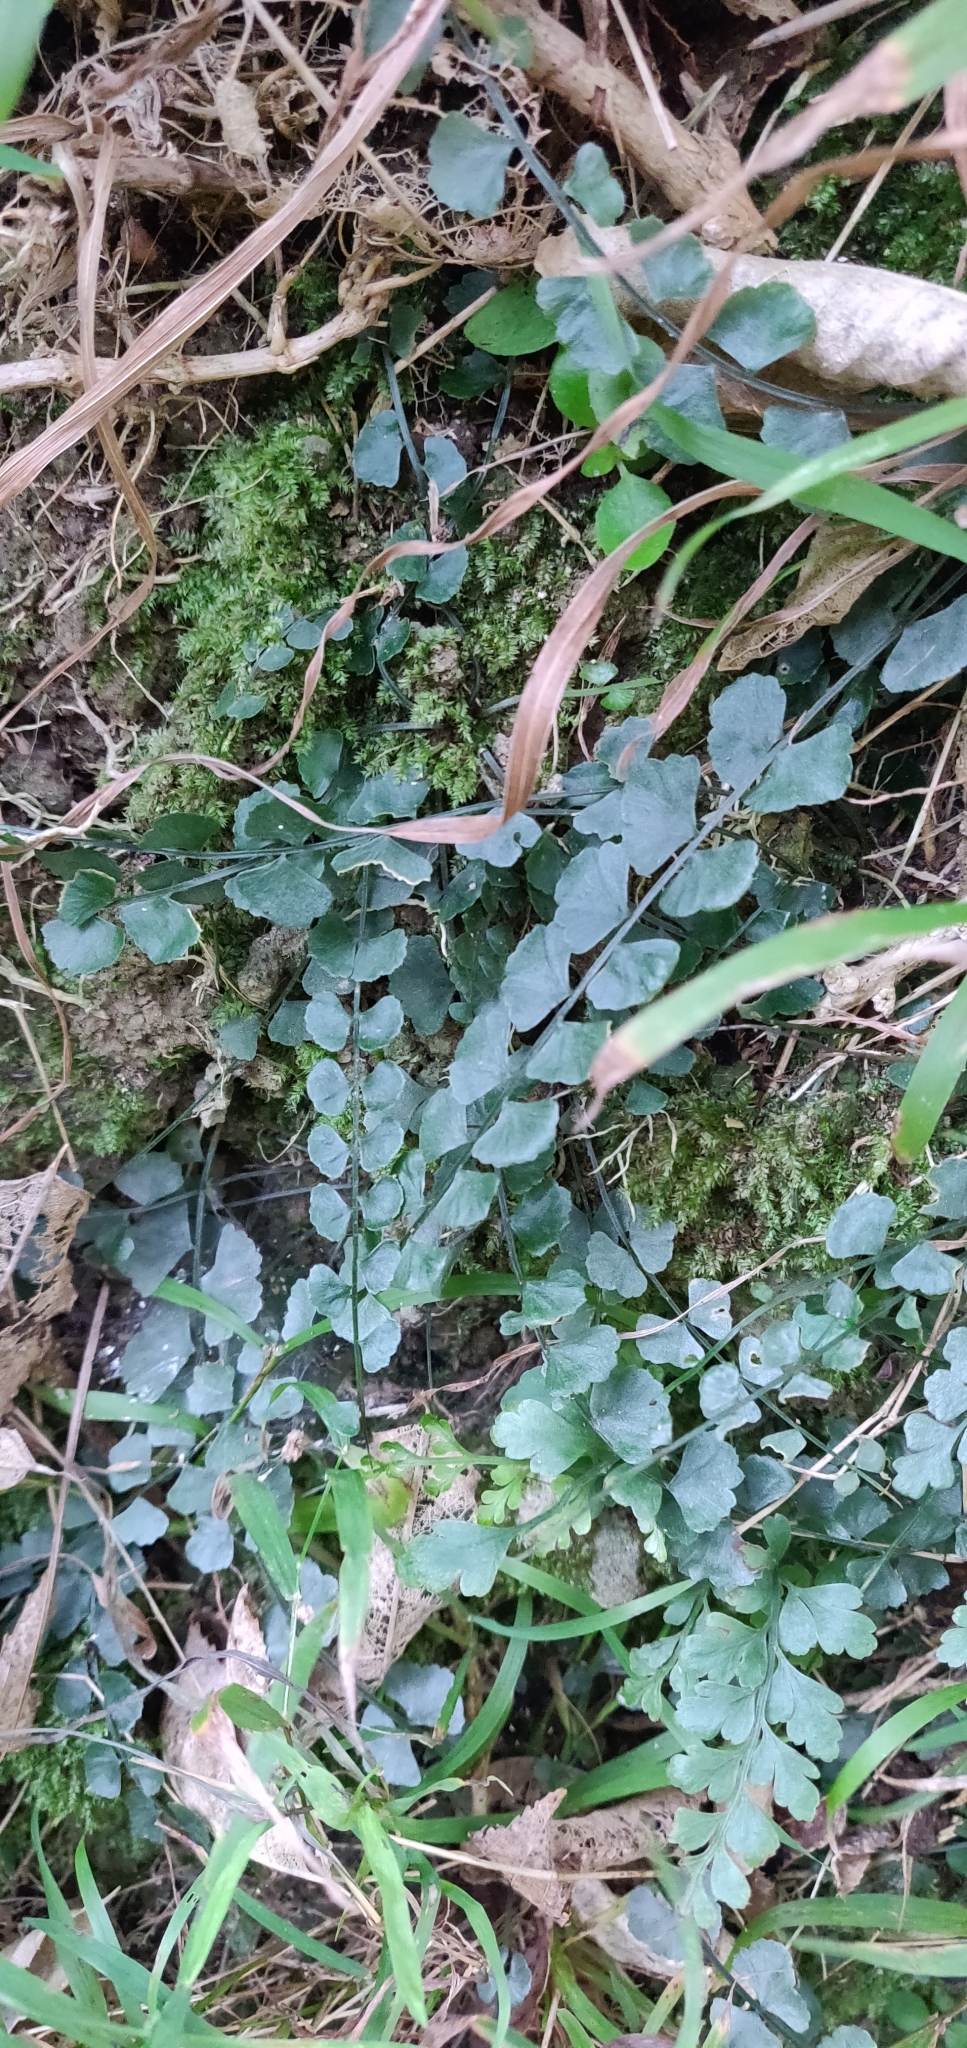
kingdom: Plantae
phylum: Tracheophyta
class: Polypodiopsida
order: Polypodiales
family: Aspleniaceae
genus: Asplenium
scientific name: Asplenium flabellifolium
